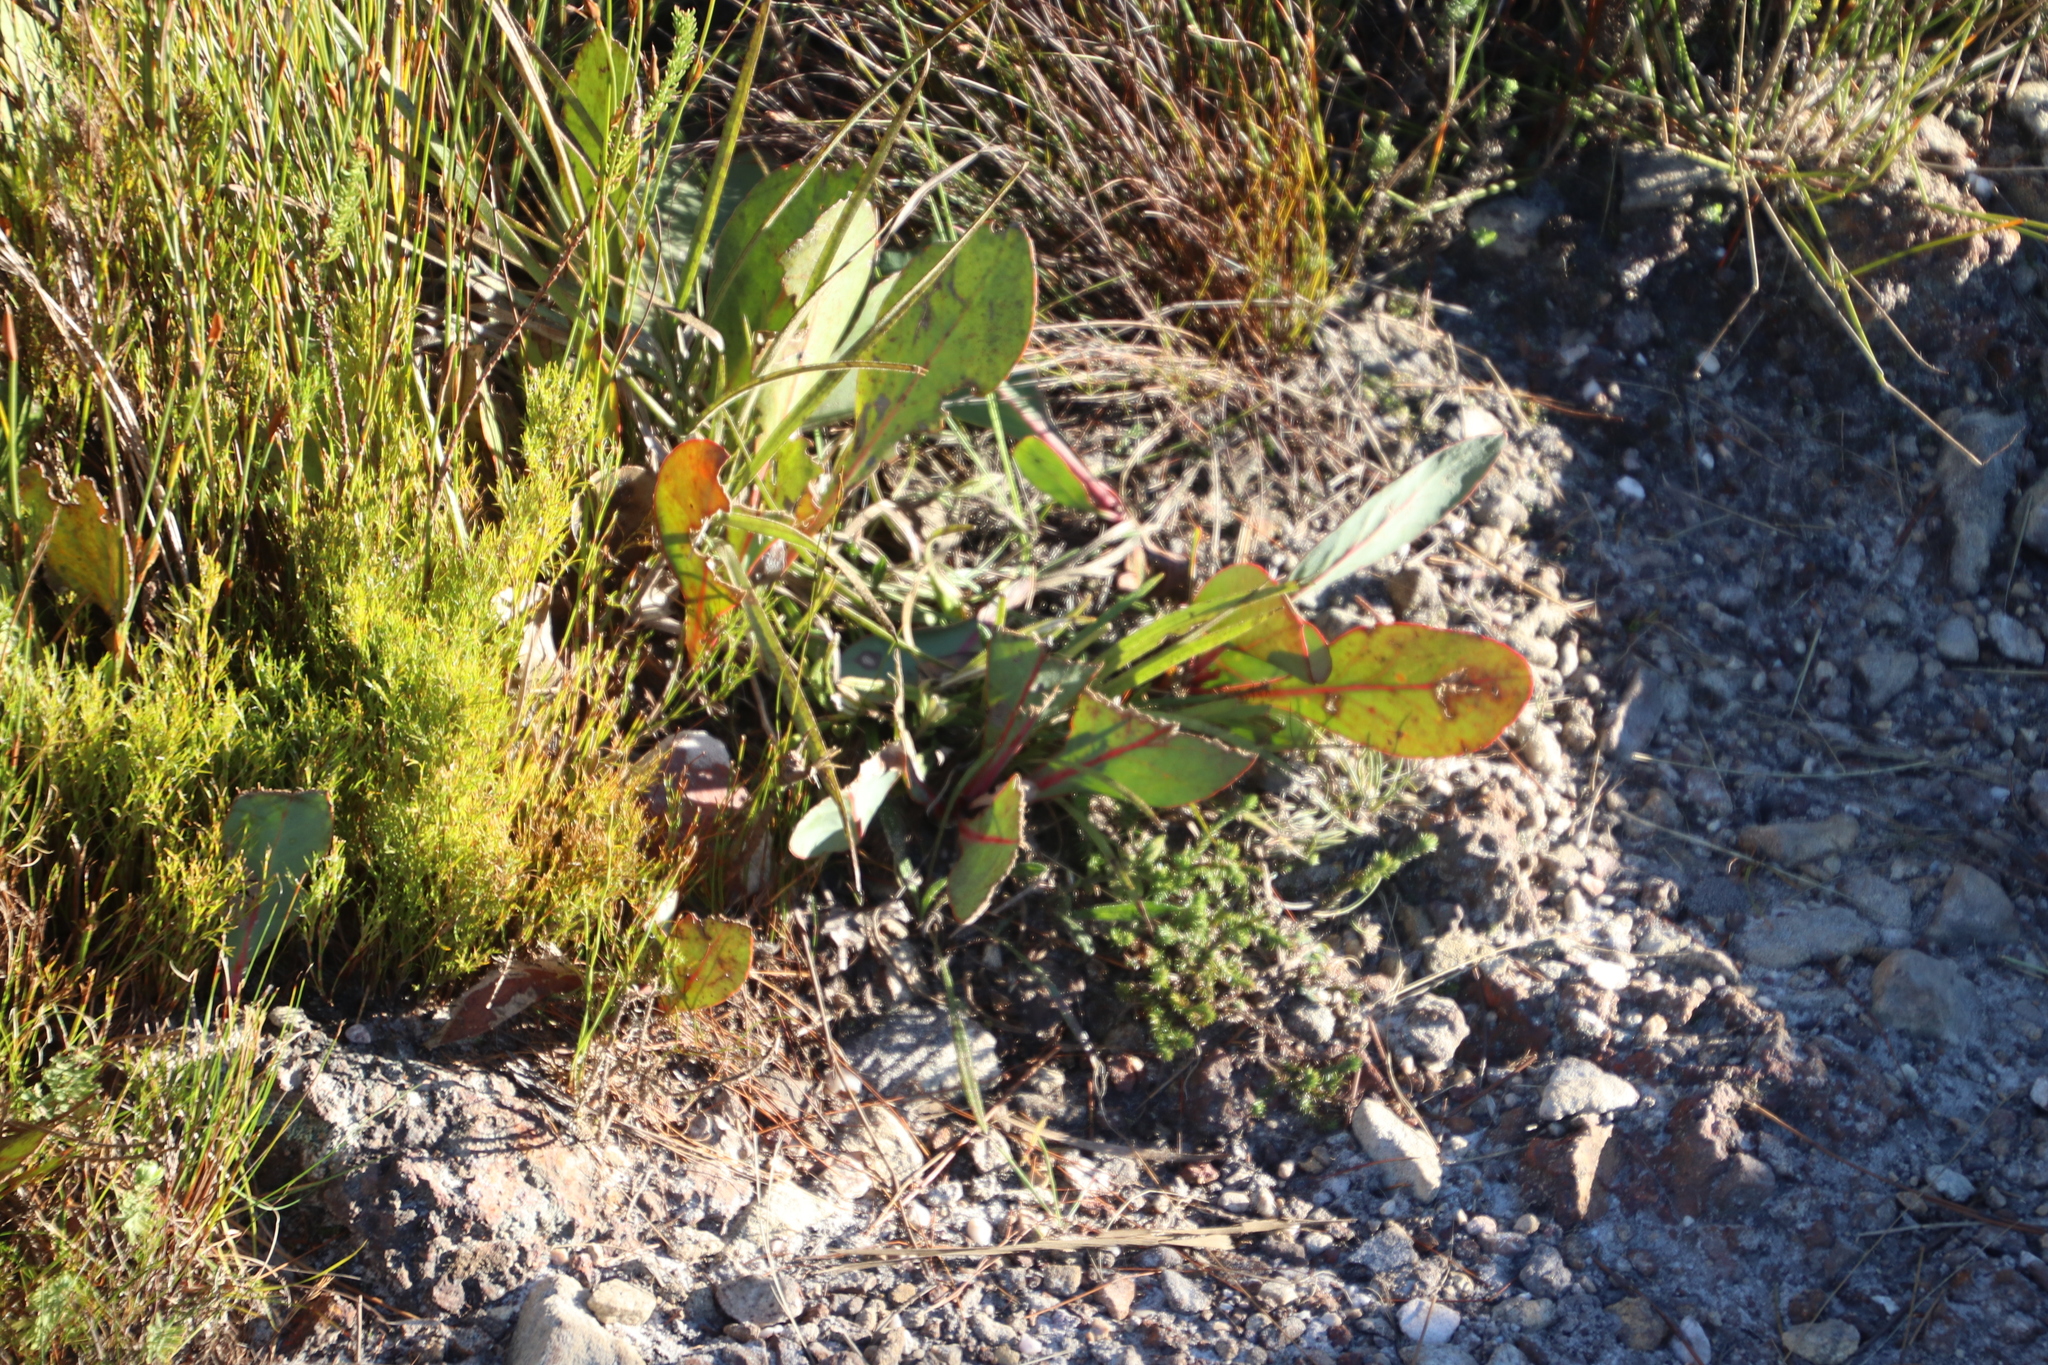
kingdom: Plantae
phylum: Tracheophyta
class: Magnoliopsida
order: Proteales
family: Proteaceae
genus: Protea
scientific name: Protea acaulos
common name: Common ground sugarbush
